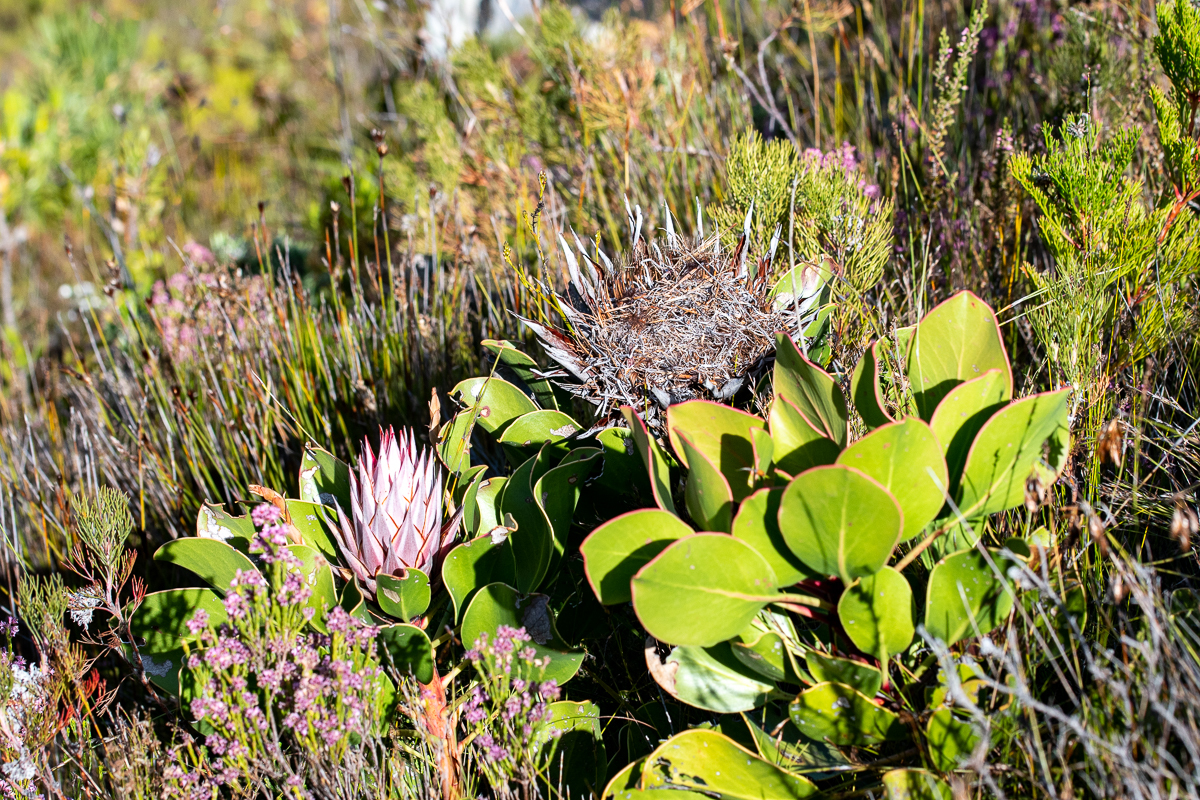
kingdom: Plantae
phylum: Tracheophyta
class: Magnoliopsida
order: Proteales
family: Proteaceae
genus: Protea
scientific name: Protea cynaroides
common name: King protea
